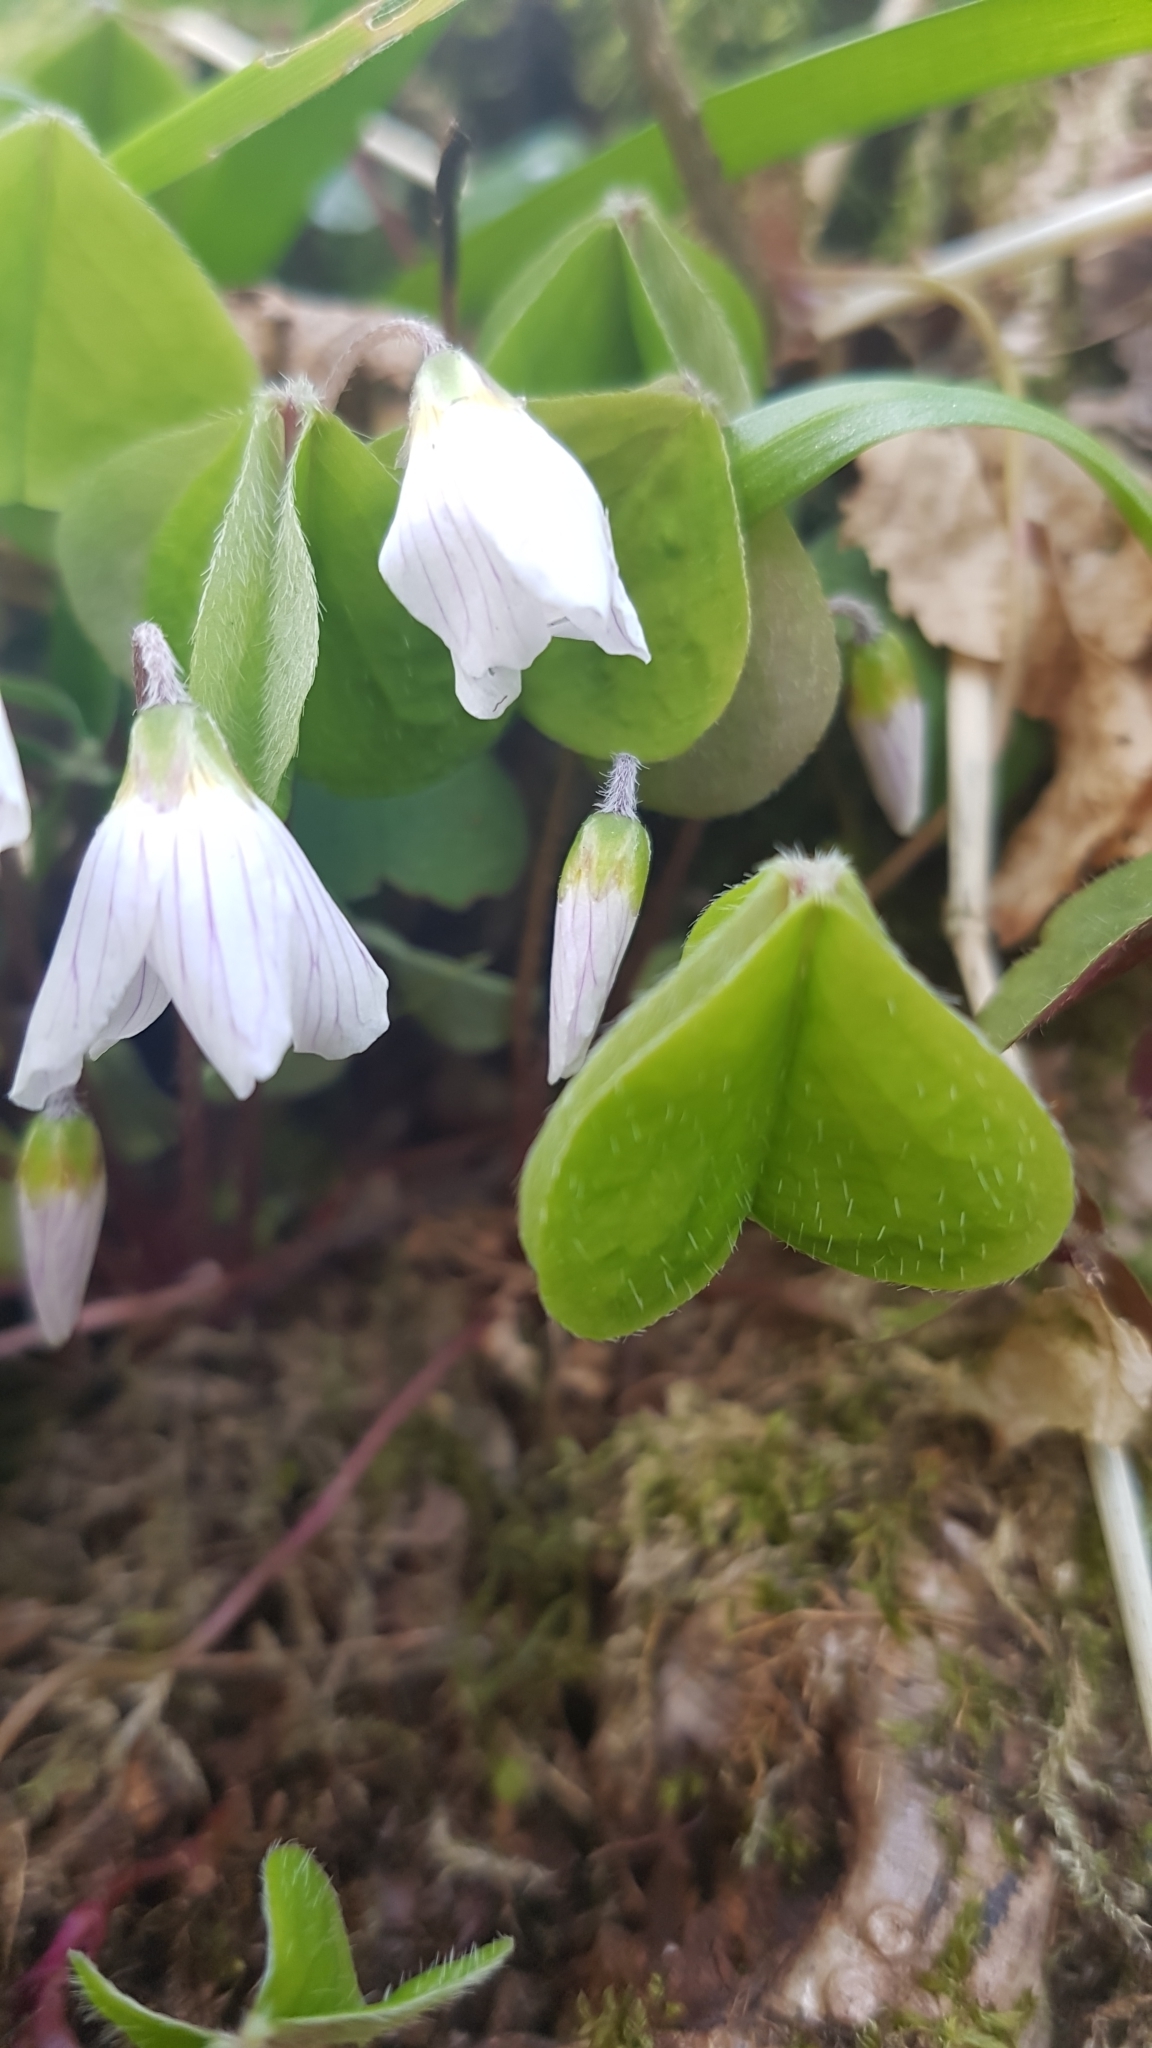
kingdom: Plantae
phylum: Tracheophyta
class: Magnoliopsida
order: Oxalidales
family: Oxalidaceae
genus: Oxalis
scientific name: Oxalis acetosella
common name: Wood-sorrel
